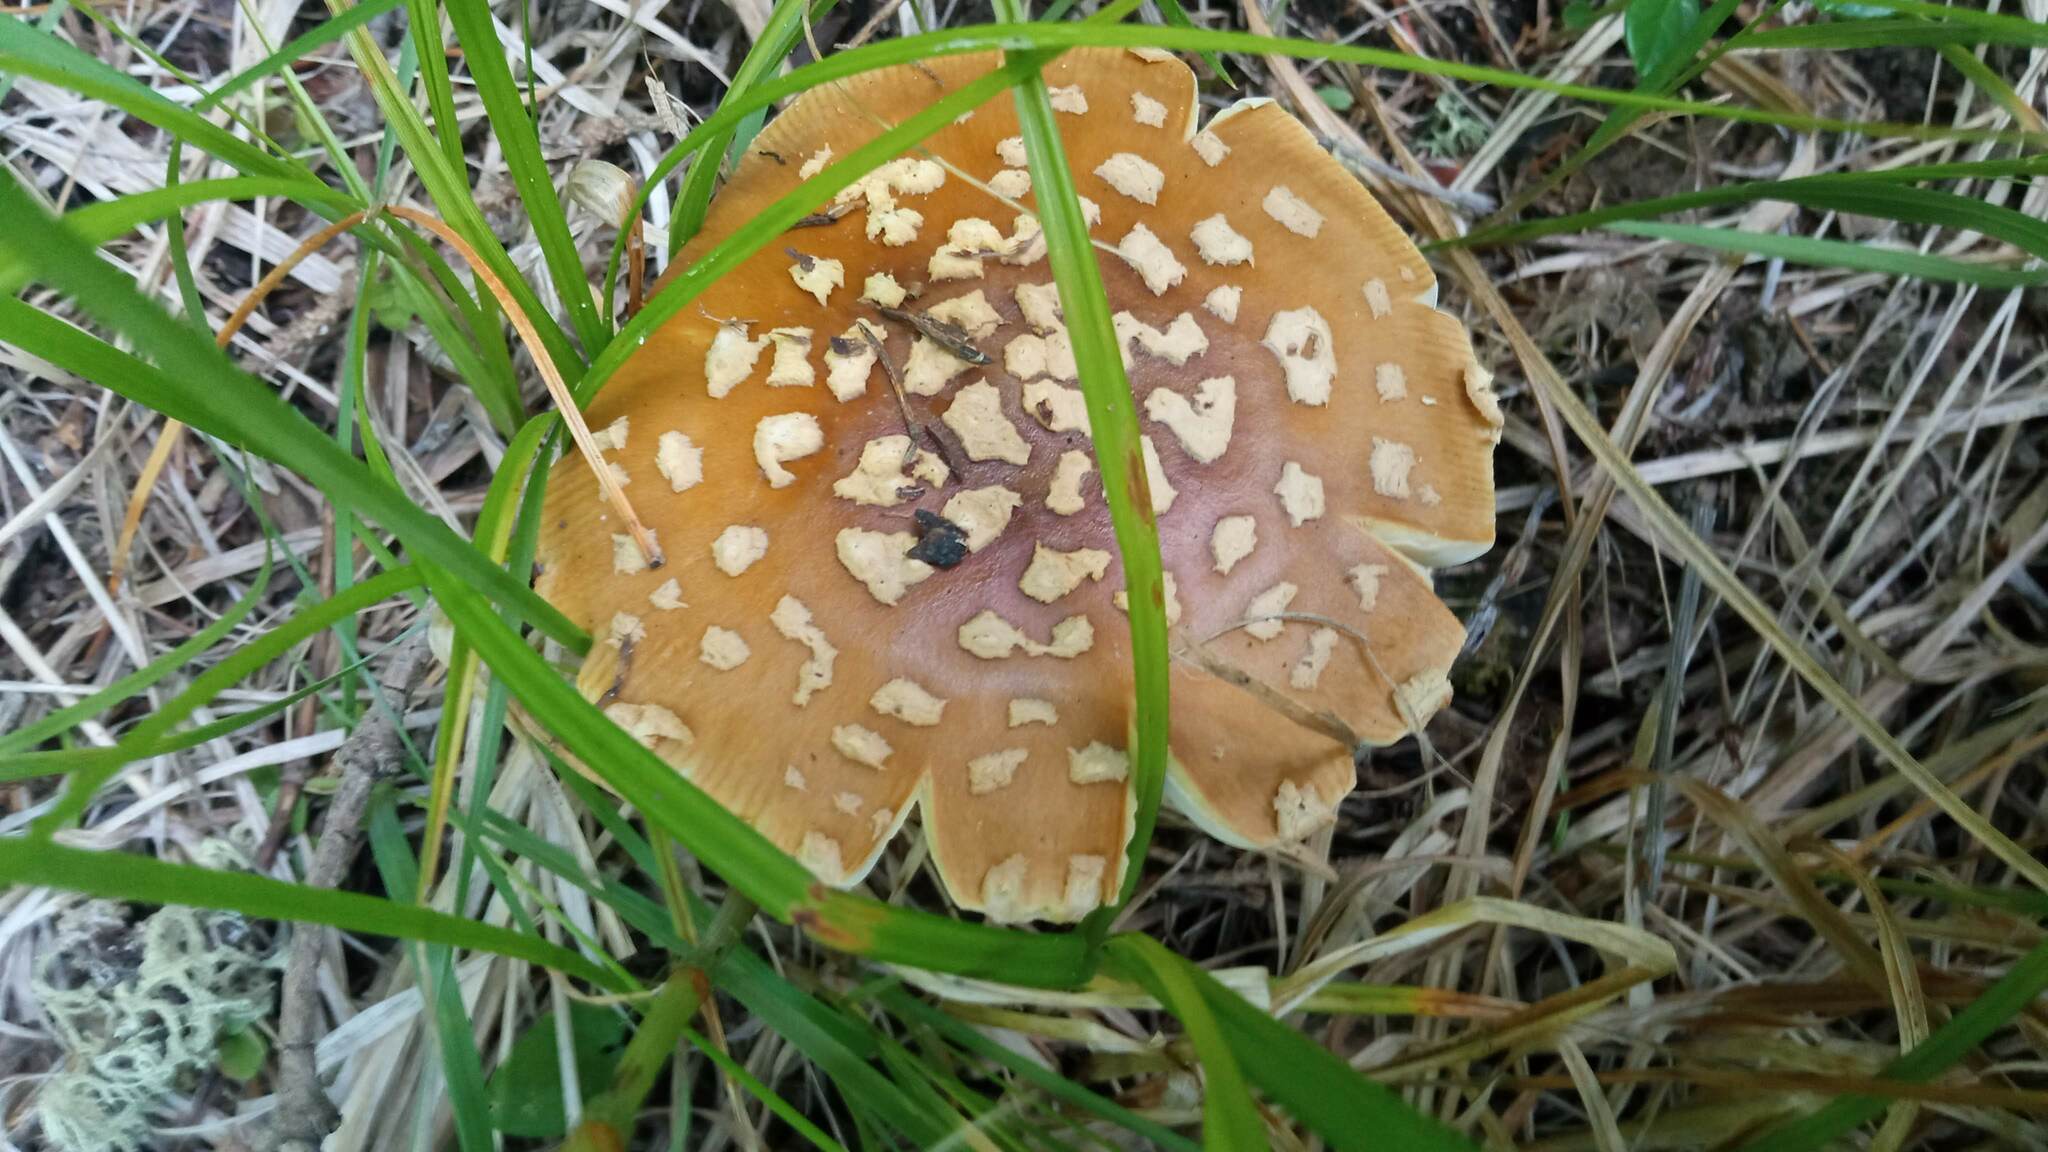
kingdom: Fungi
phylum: Basidiomycota
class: Agaricomycetes
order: Agaricales
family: Amanitaceae
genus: Amanita
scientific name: Amanita regalis
